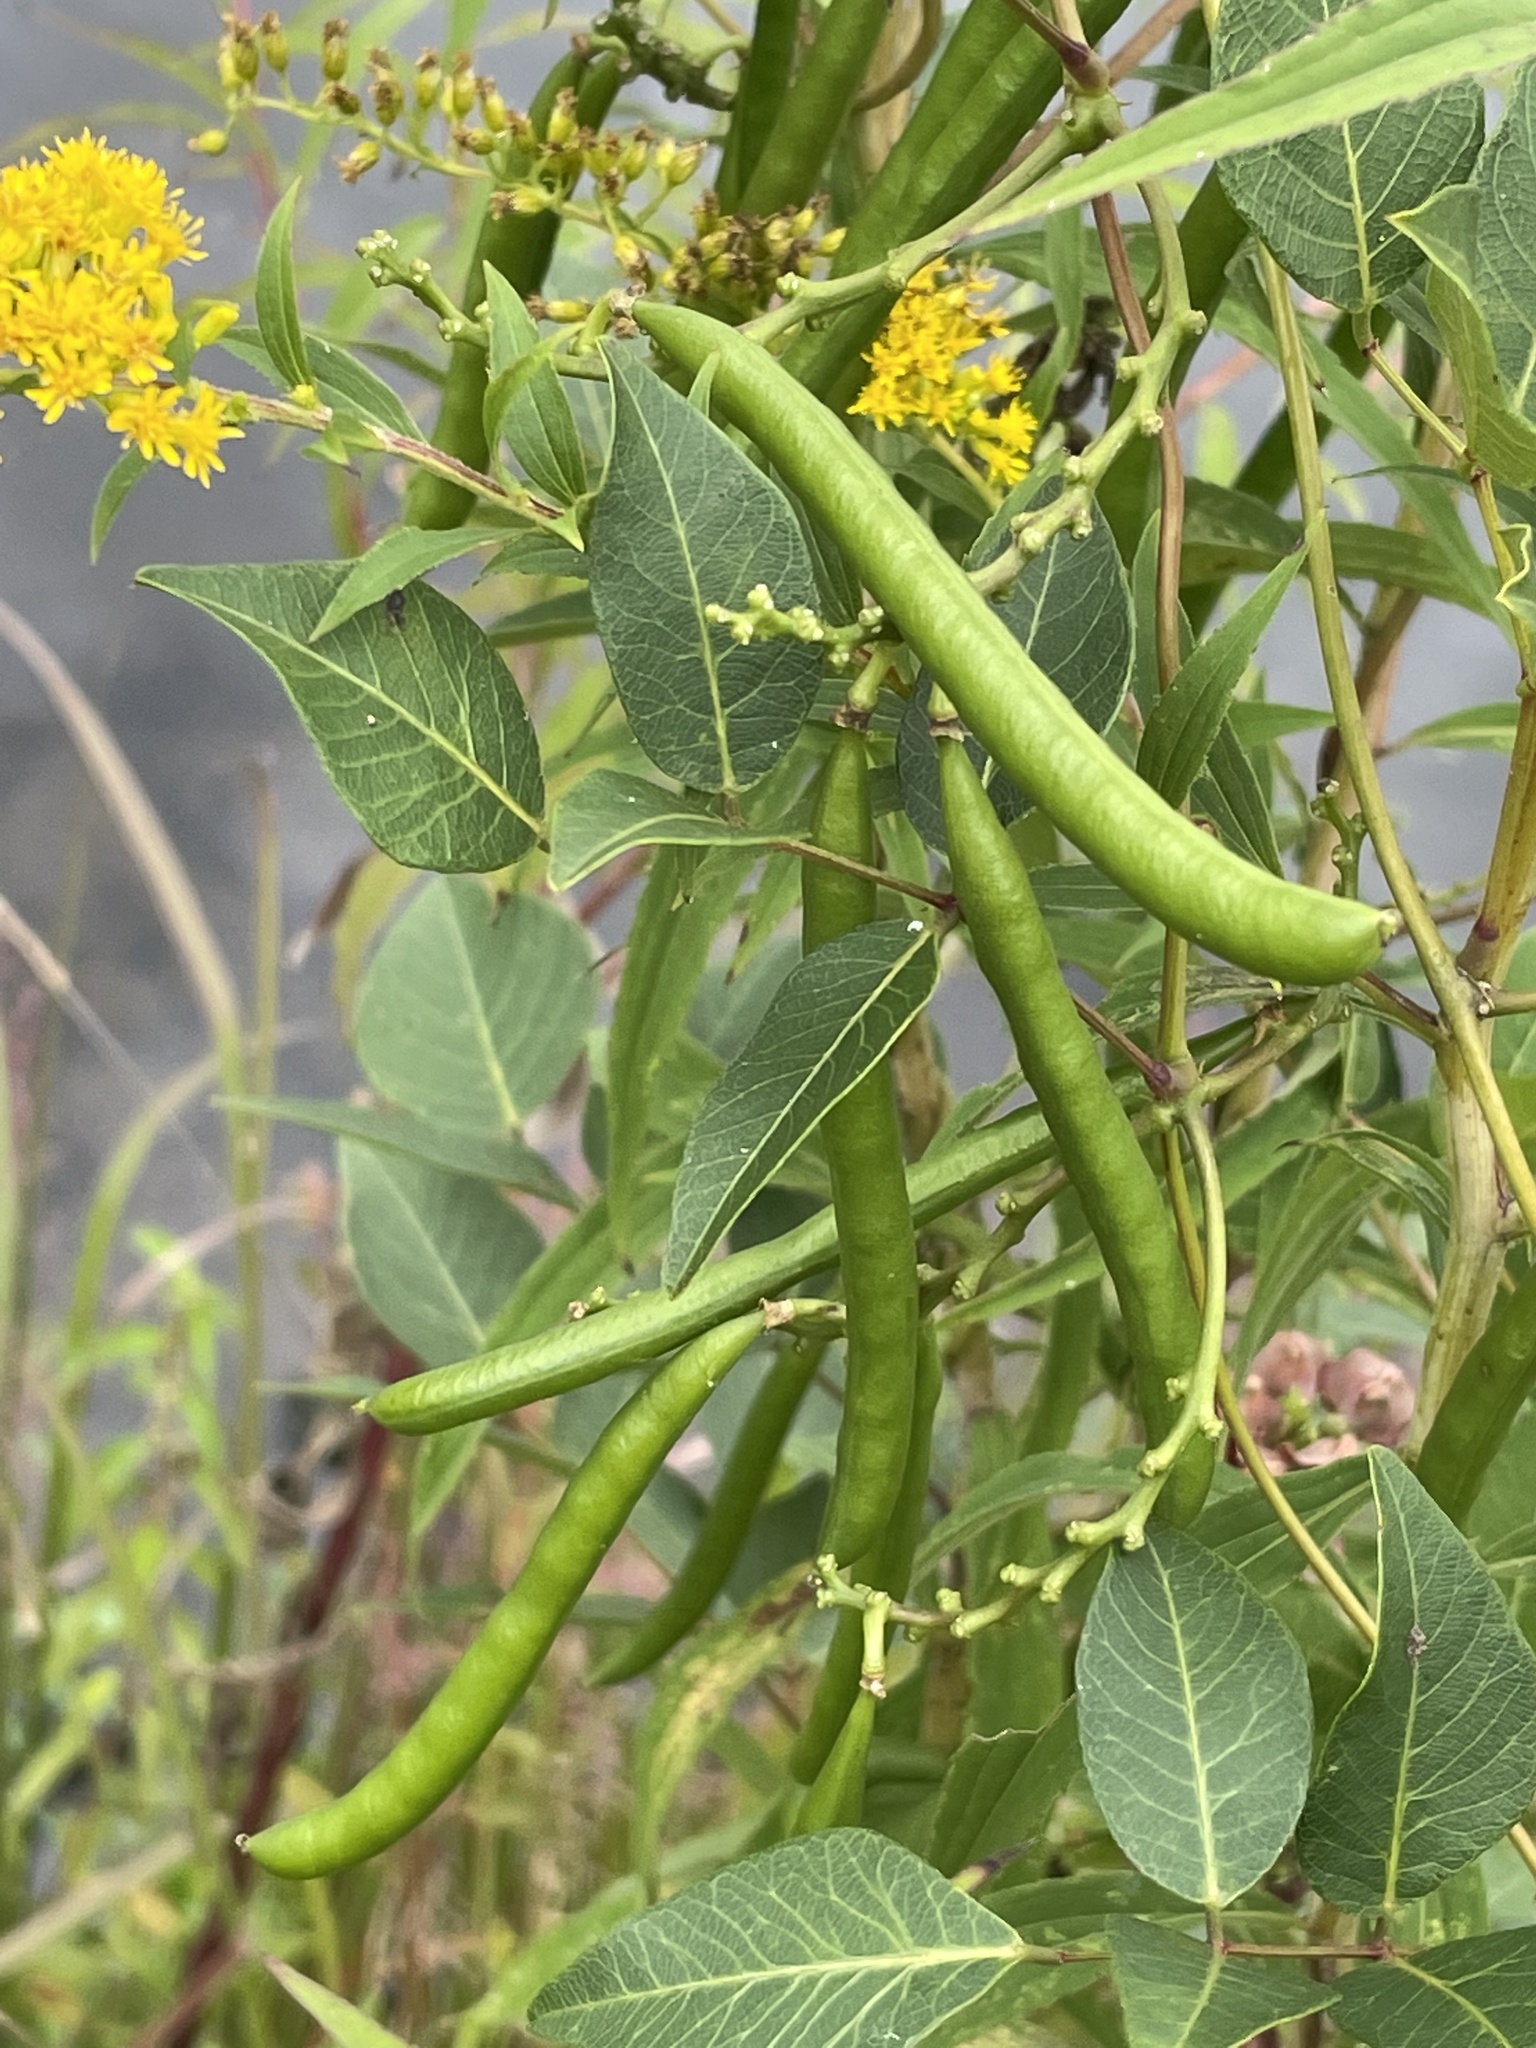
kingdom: Plantae
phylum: Tracheophyta
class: Magnoliopsida
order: Fabales
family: Fabaceae
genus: Apios
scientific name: Apios americana
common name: American potato-bean
